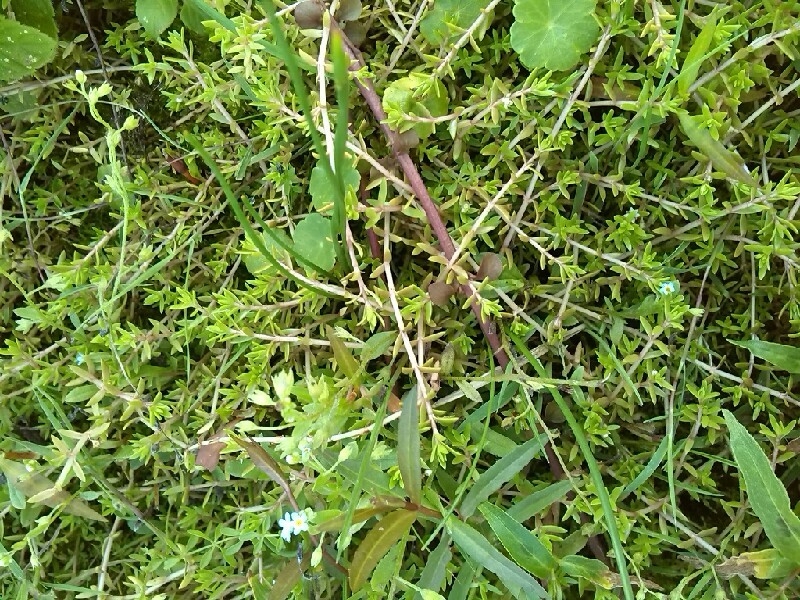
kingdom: Plantae
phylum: Tracheophyta
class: Magnoliopsida
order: Saxifragales
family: Crassulaceae
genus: Crassula
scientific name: Crassula helmsii
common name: New zealand pigmyweed
